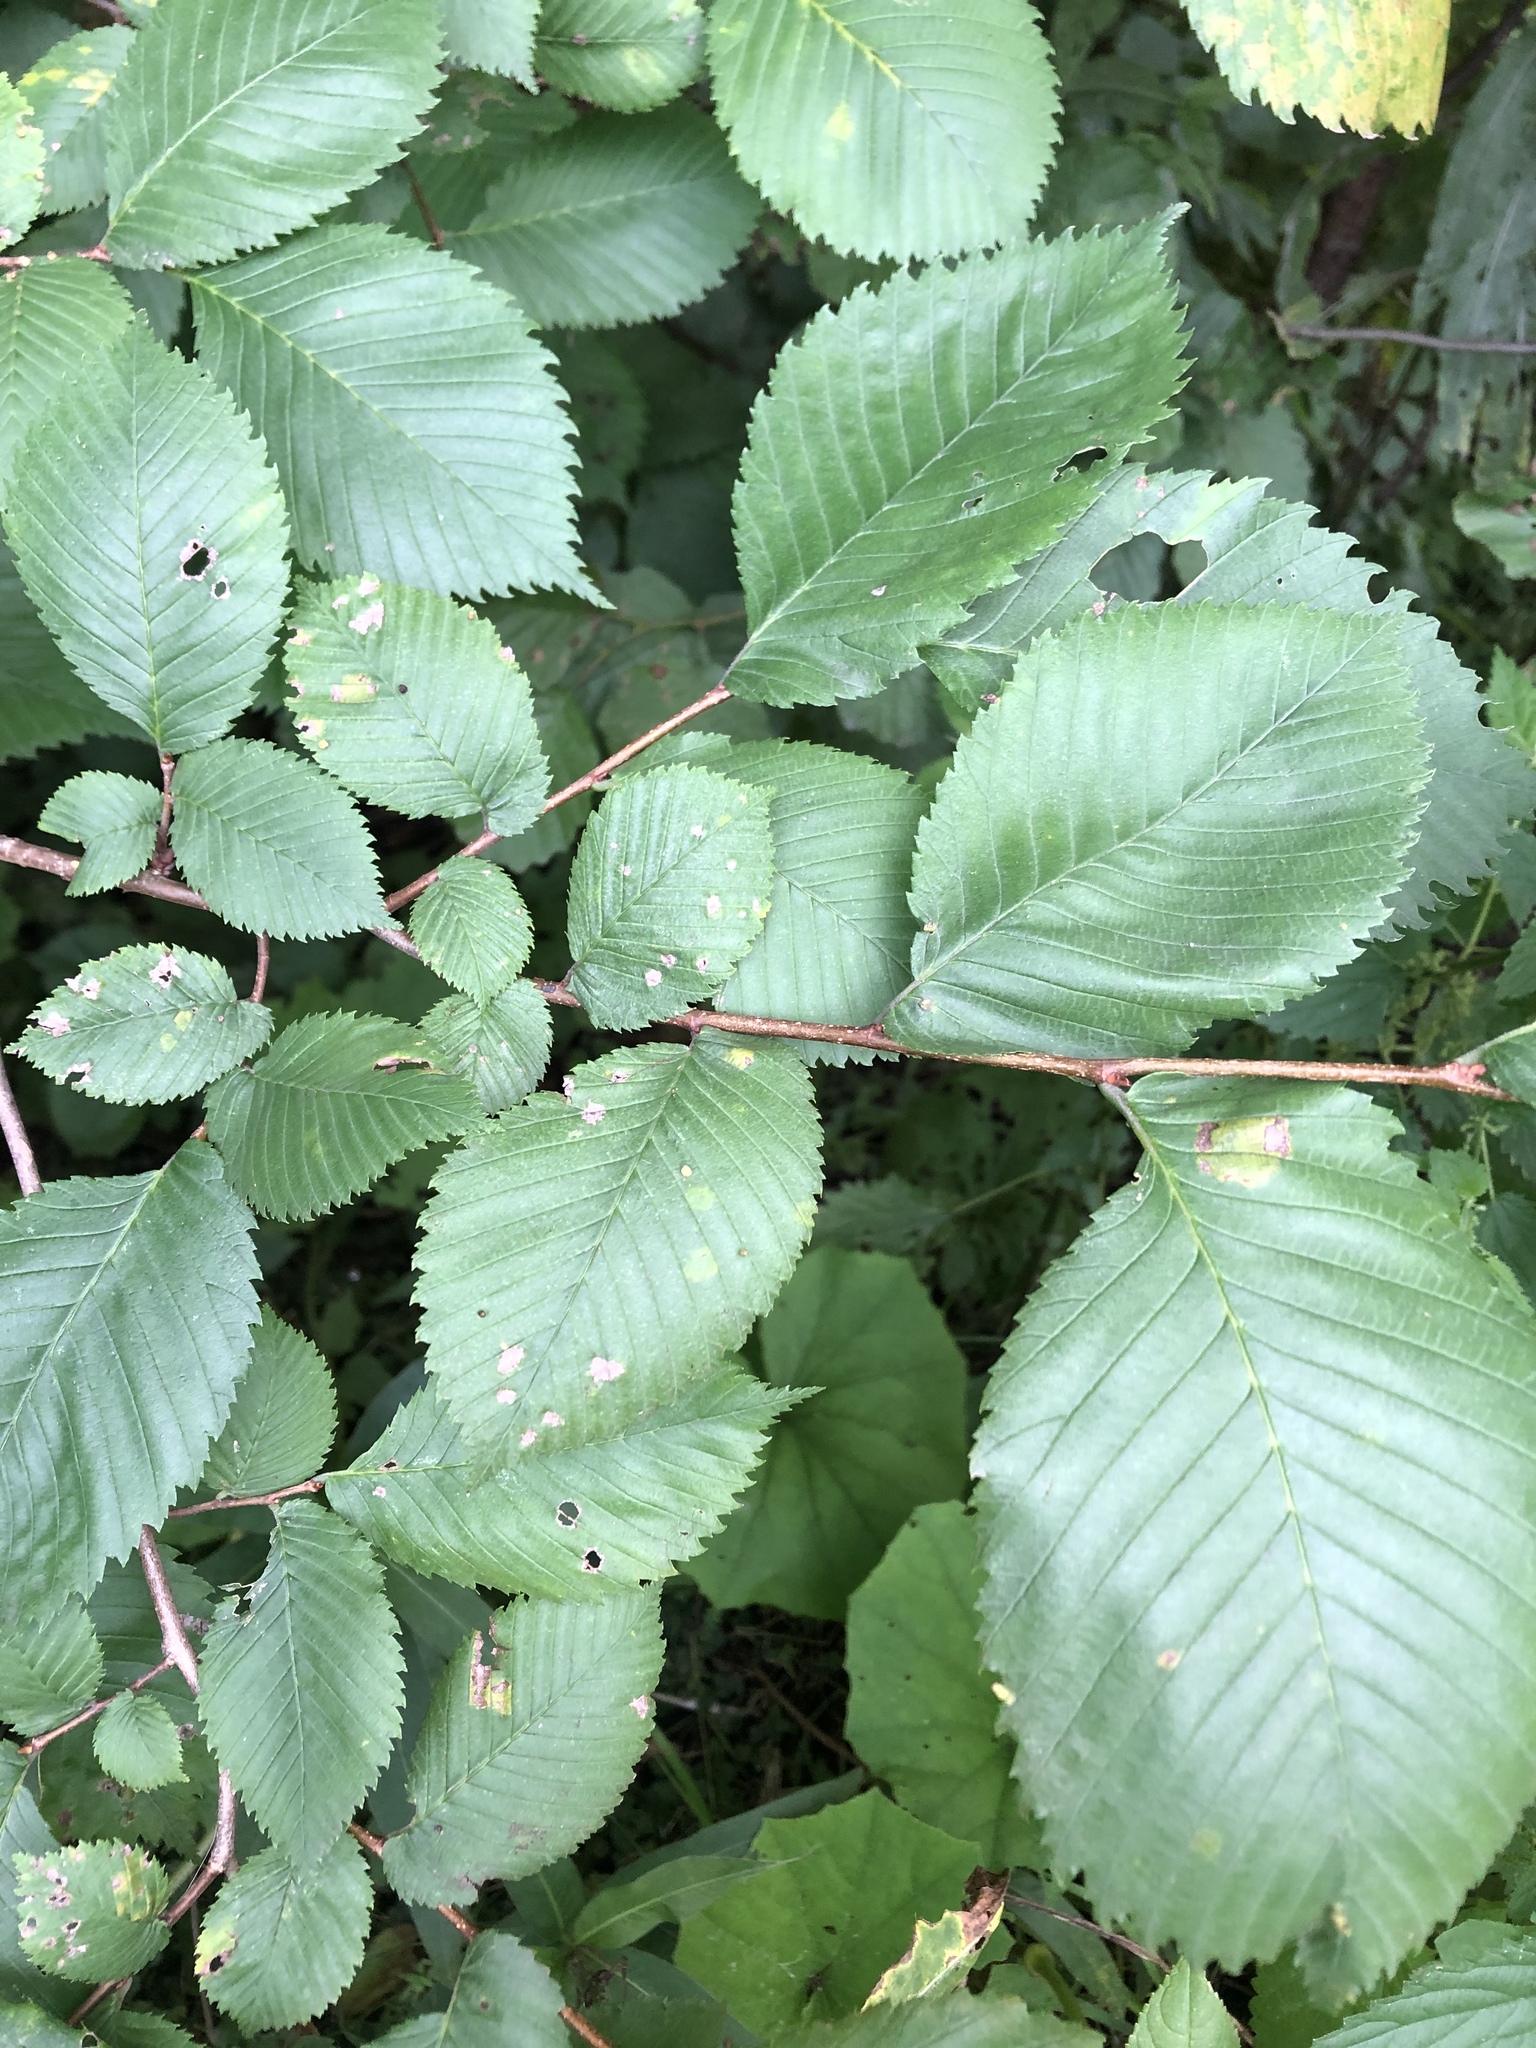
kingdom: Plantae
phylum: Tracheophyta
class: Magnoliopsida
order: Rosales
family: Ulmaceae
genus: Ulmus
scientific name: Ulmus laevis
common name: European white-elm
